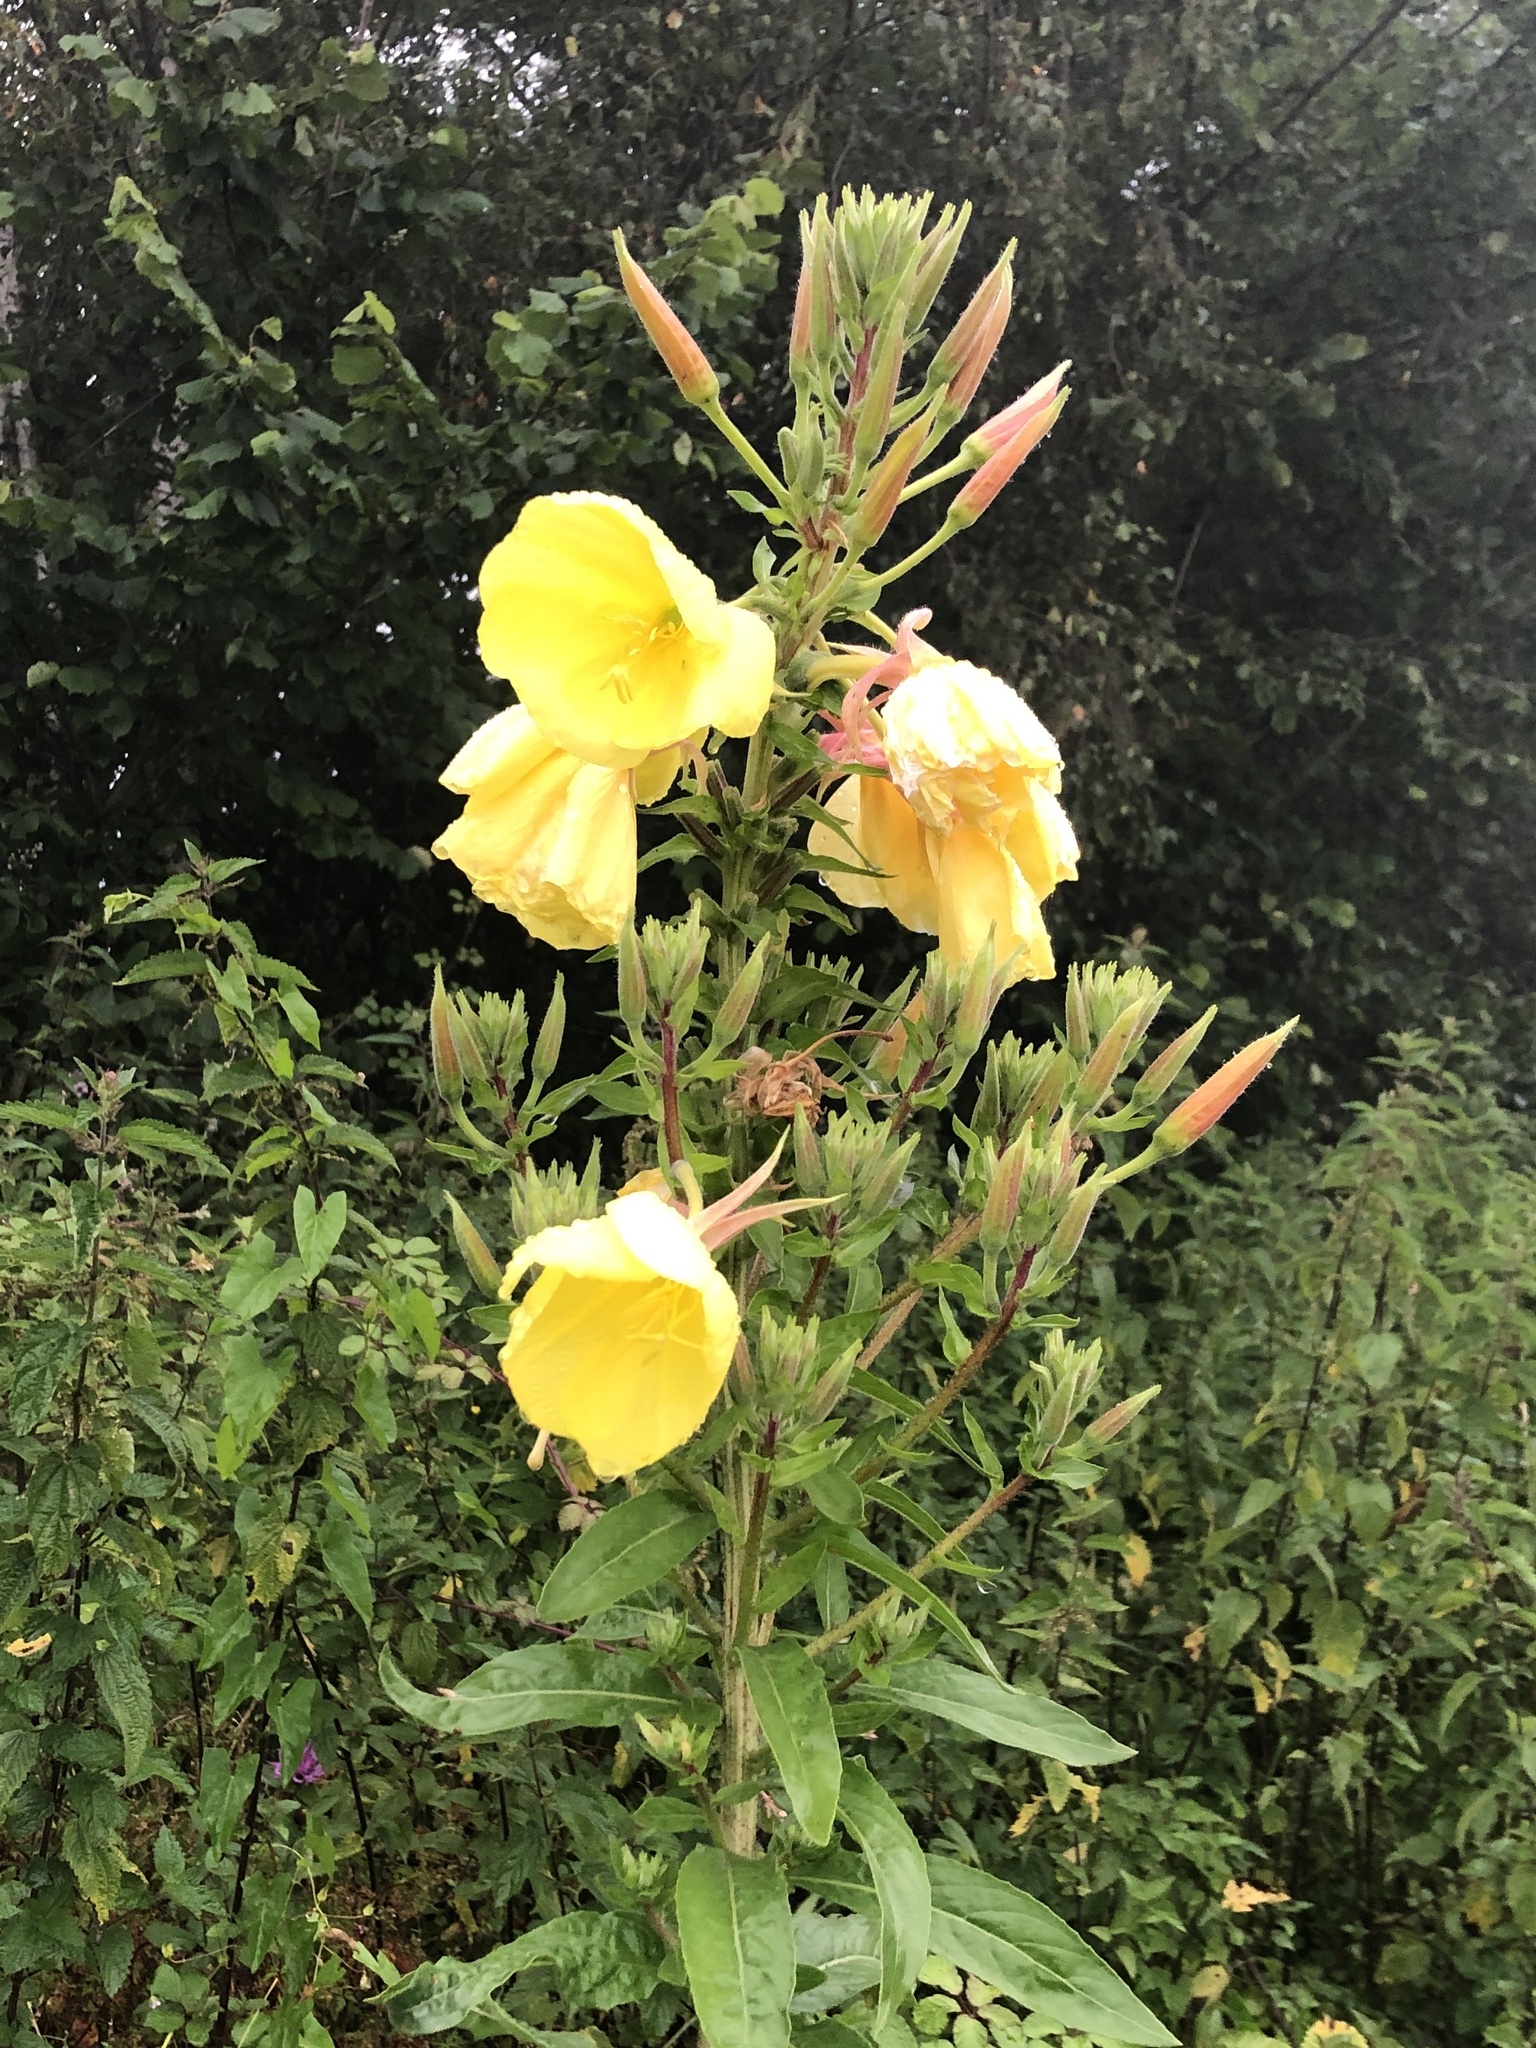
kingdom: Plantae
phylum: Tracheophyta
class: Magnoliopsida
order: Myrtales
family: Onagraceae
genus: Oenothera
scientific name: Oenothera glazioviana
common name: Large-flowered evening-primrose
